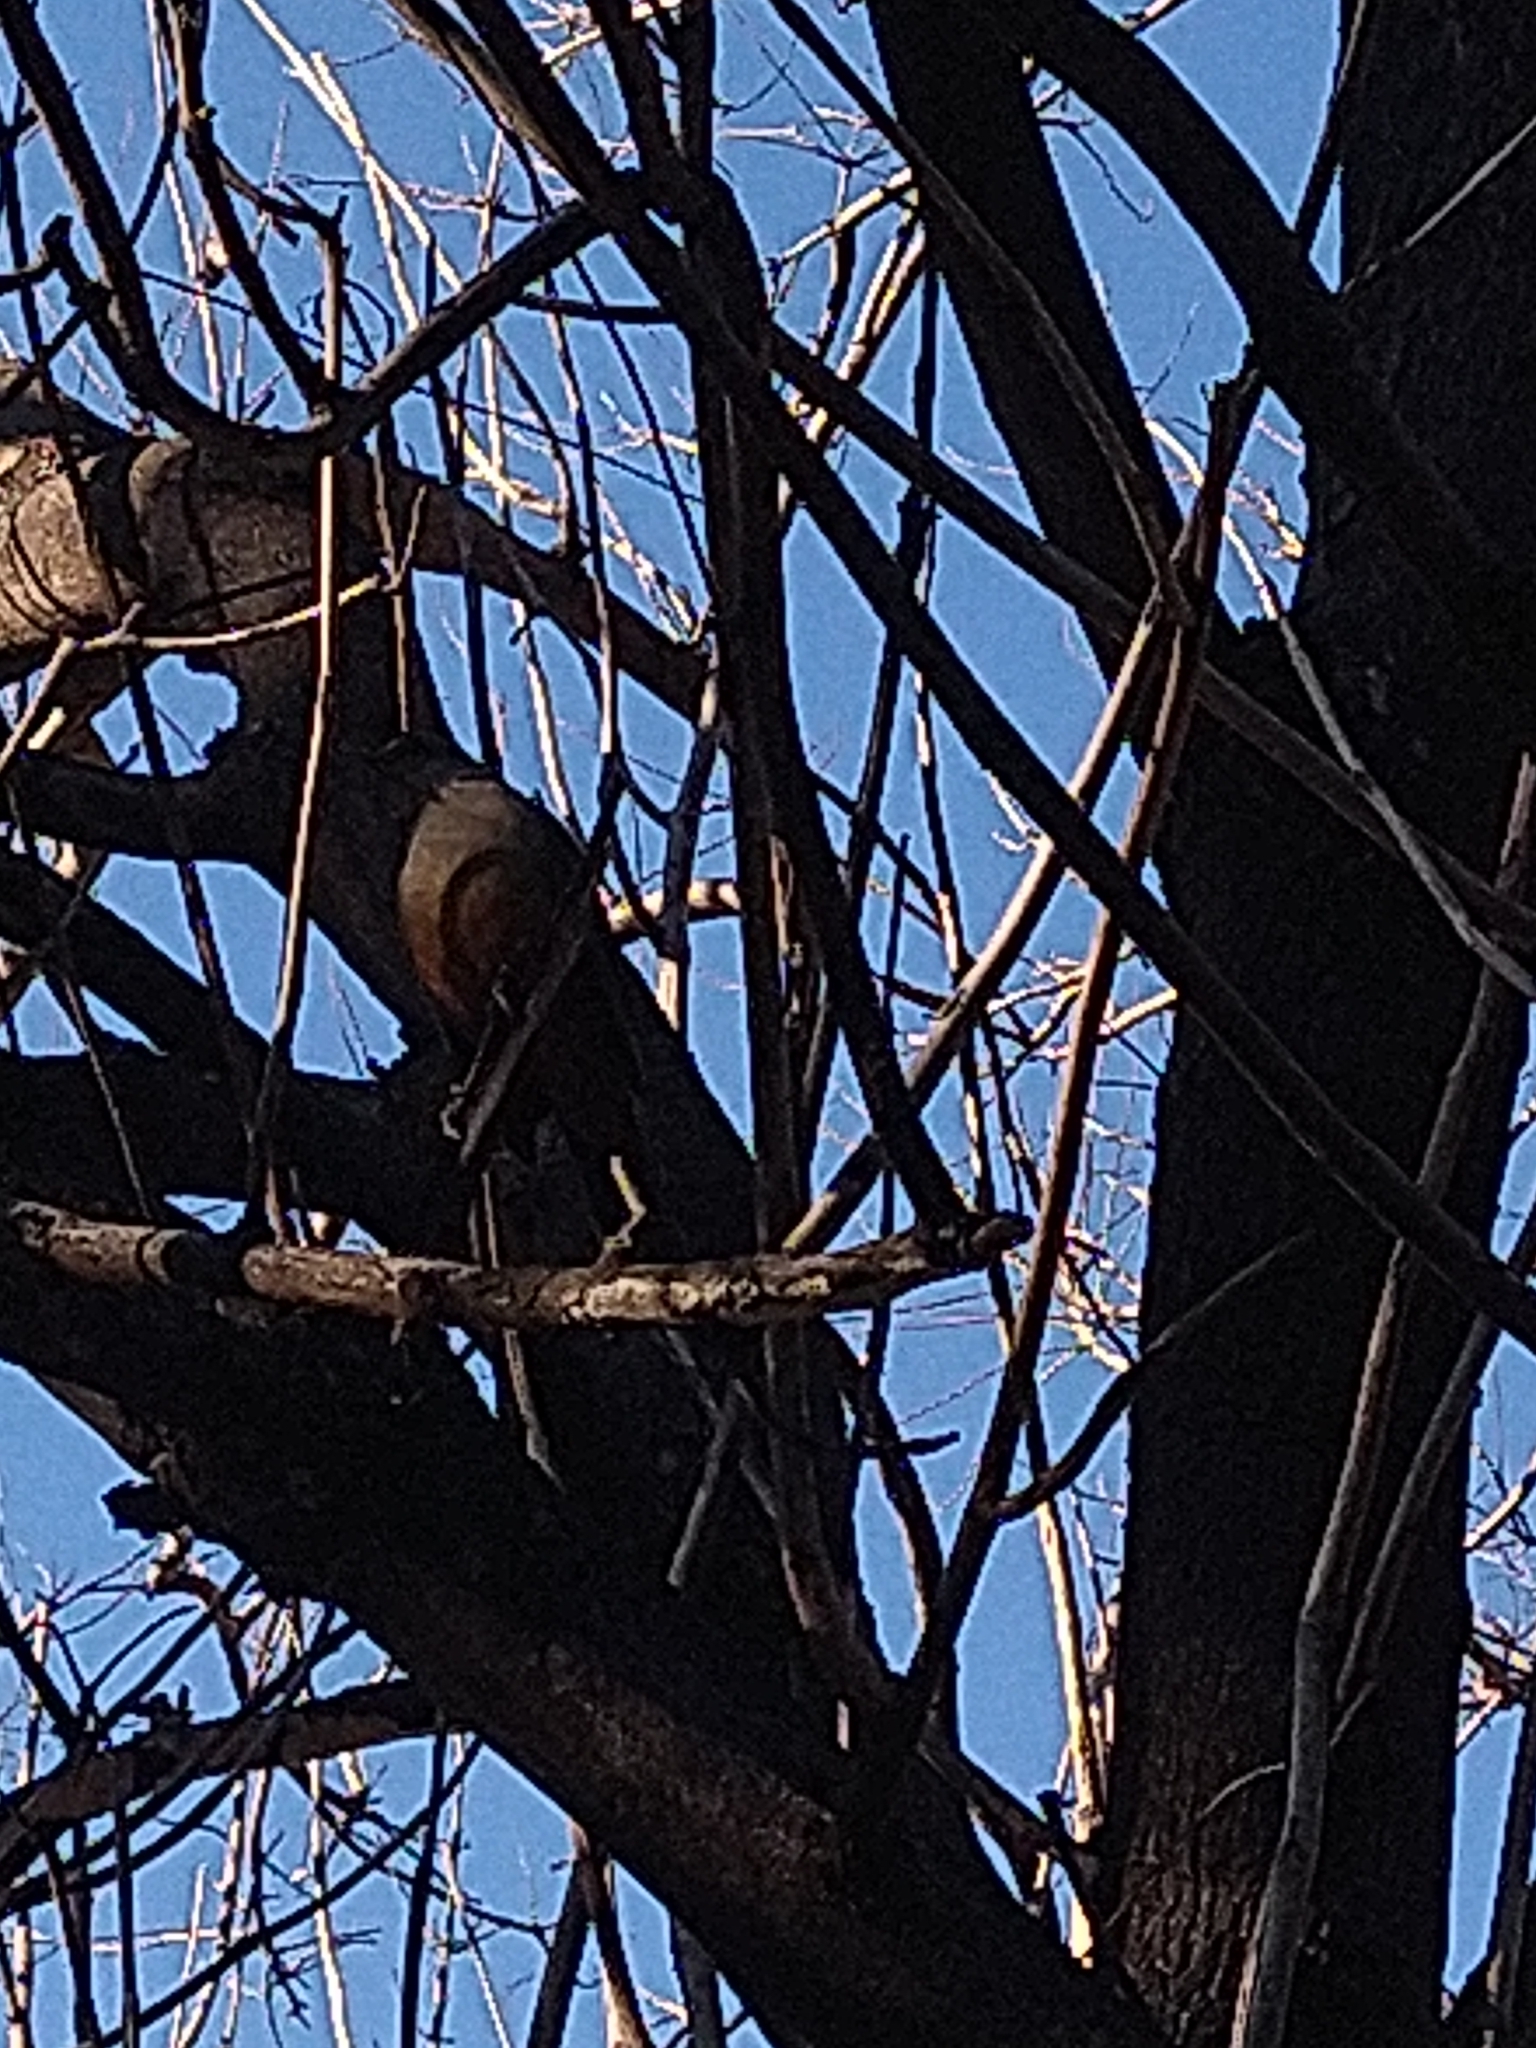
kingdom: Animalia
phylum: Chordata
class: Aves
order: Passeriformes
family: Turdidae
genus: Turdus
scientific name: Turdus rufiventris
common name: Rufous-bellied thrush
